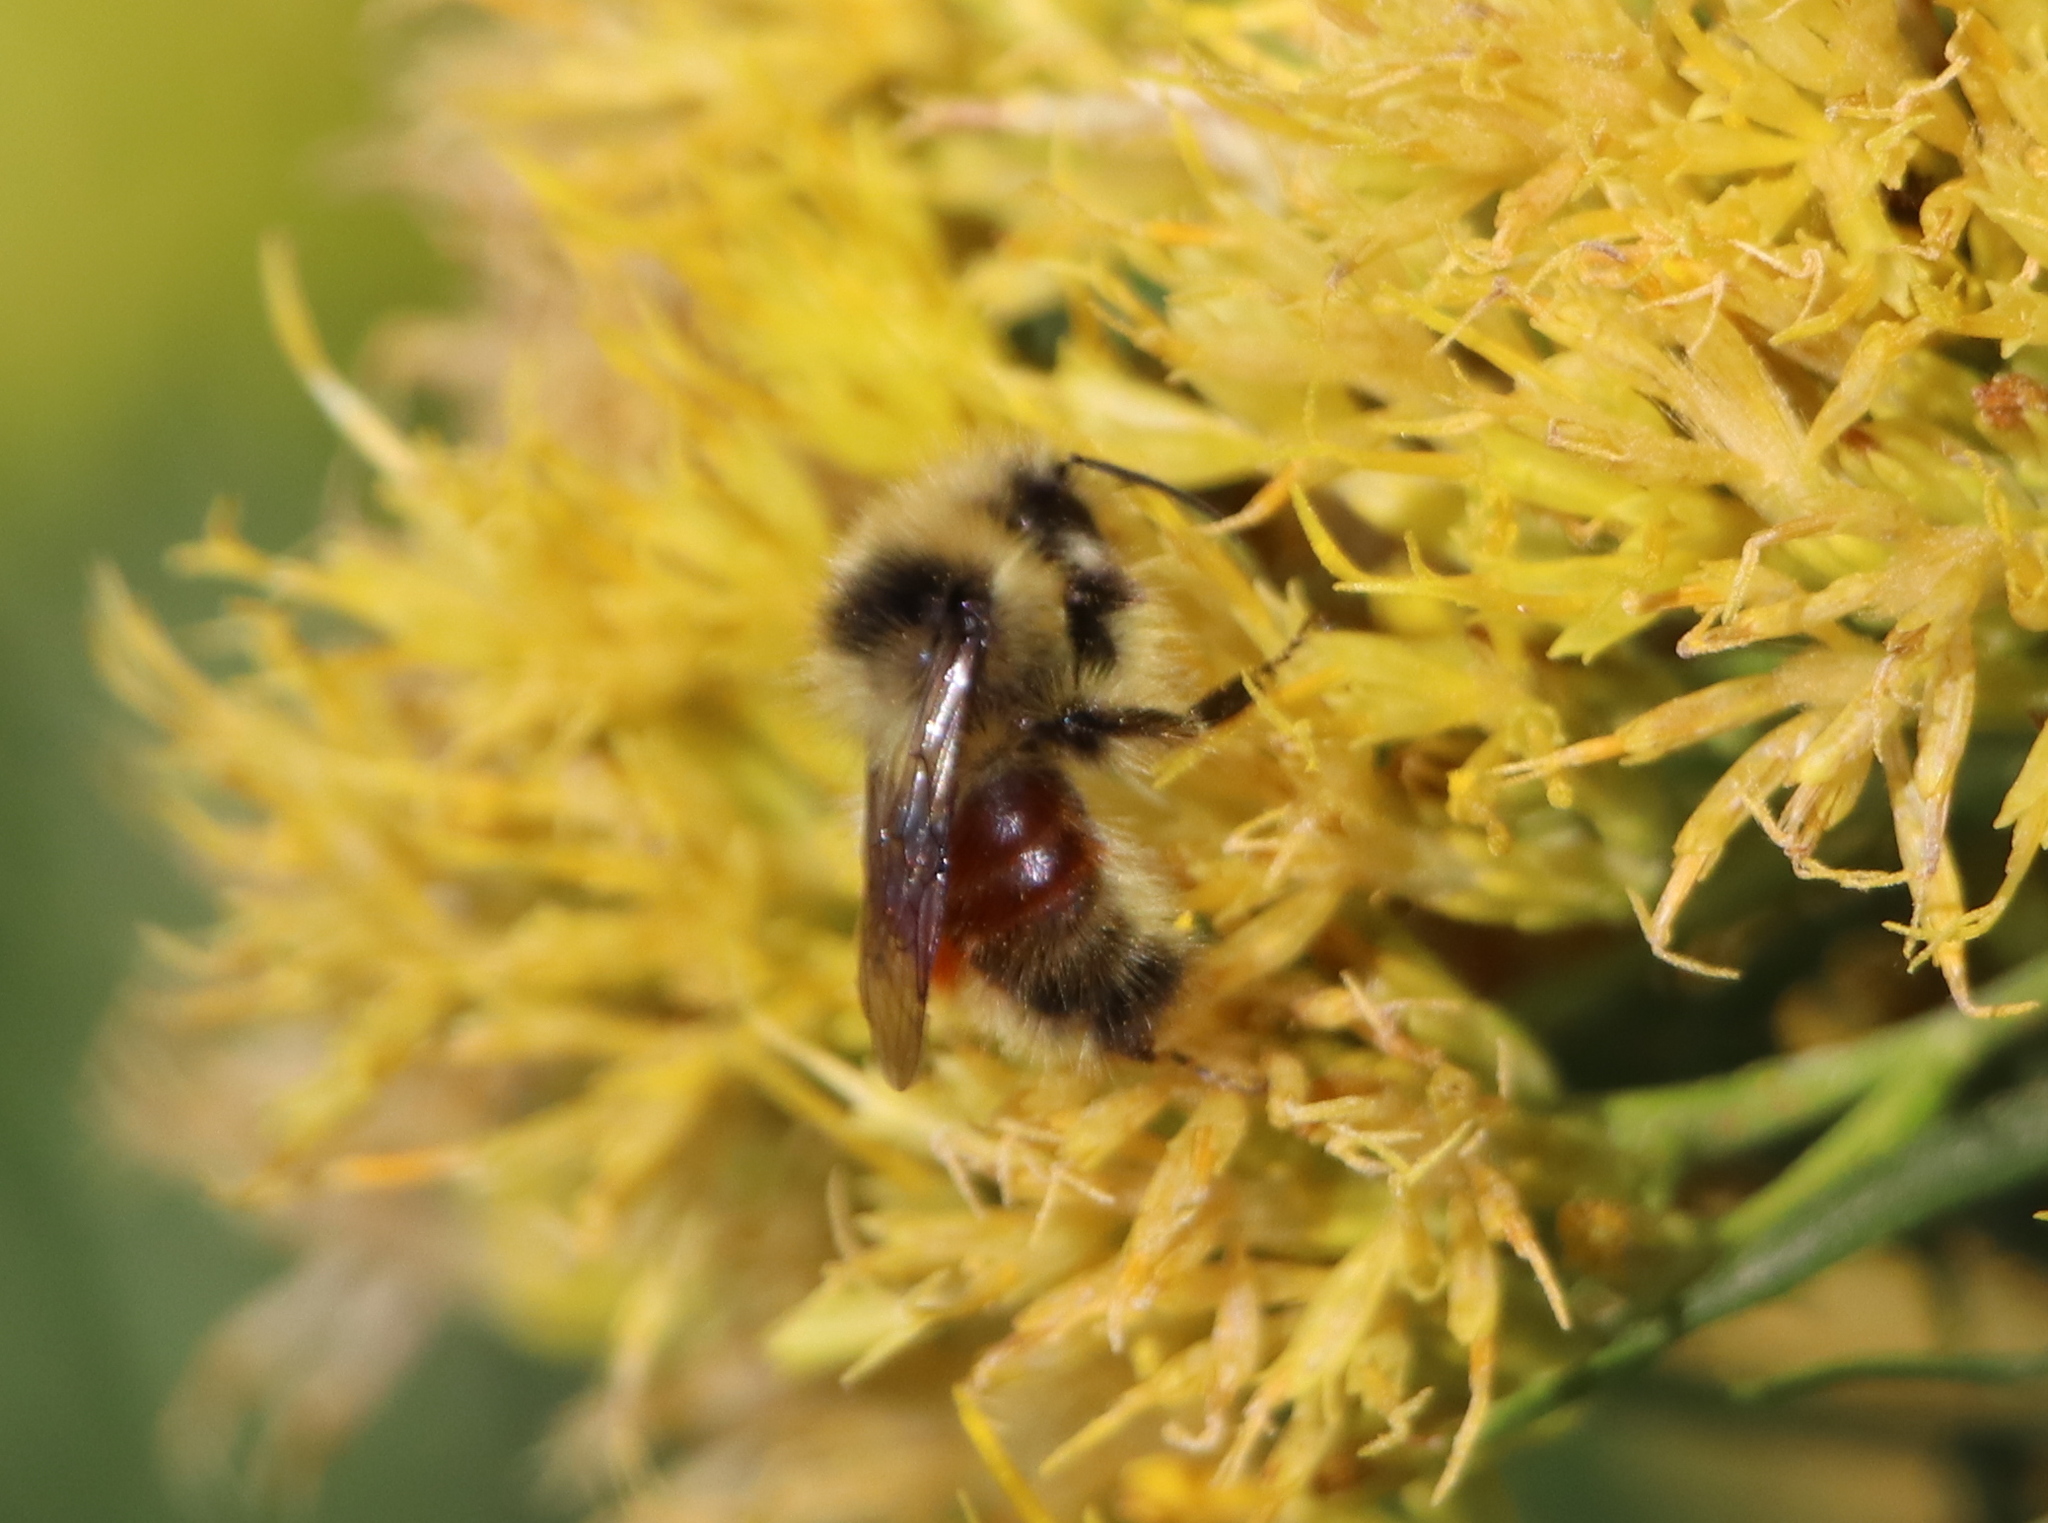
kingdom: Animalia
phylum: Arthropoda
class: Insecta
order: Hymenoptera
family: Apidae
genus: Bombus
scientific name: Bombus huntii
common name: Hunt bumble bee
